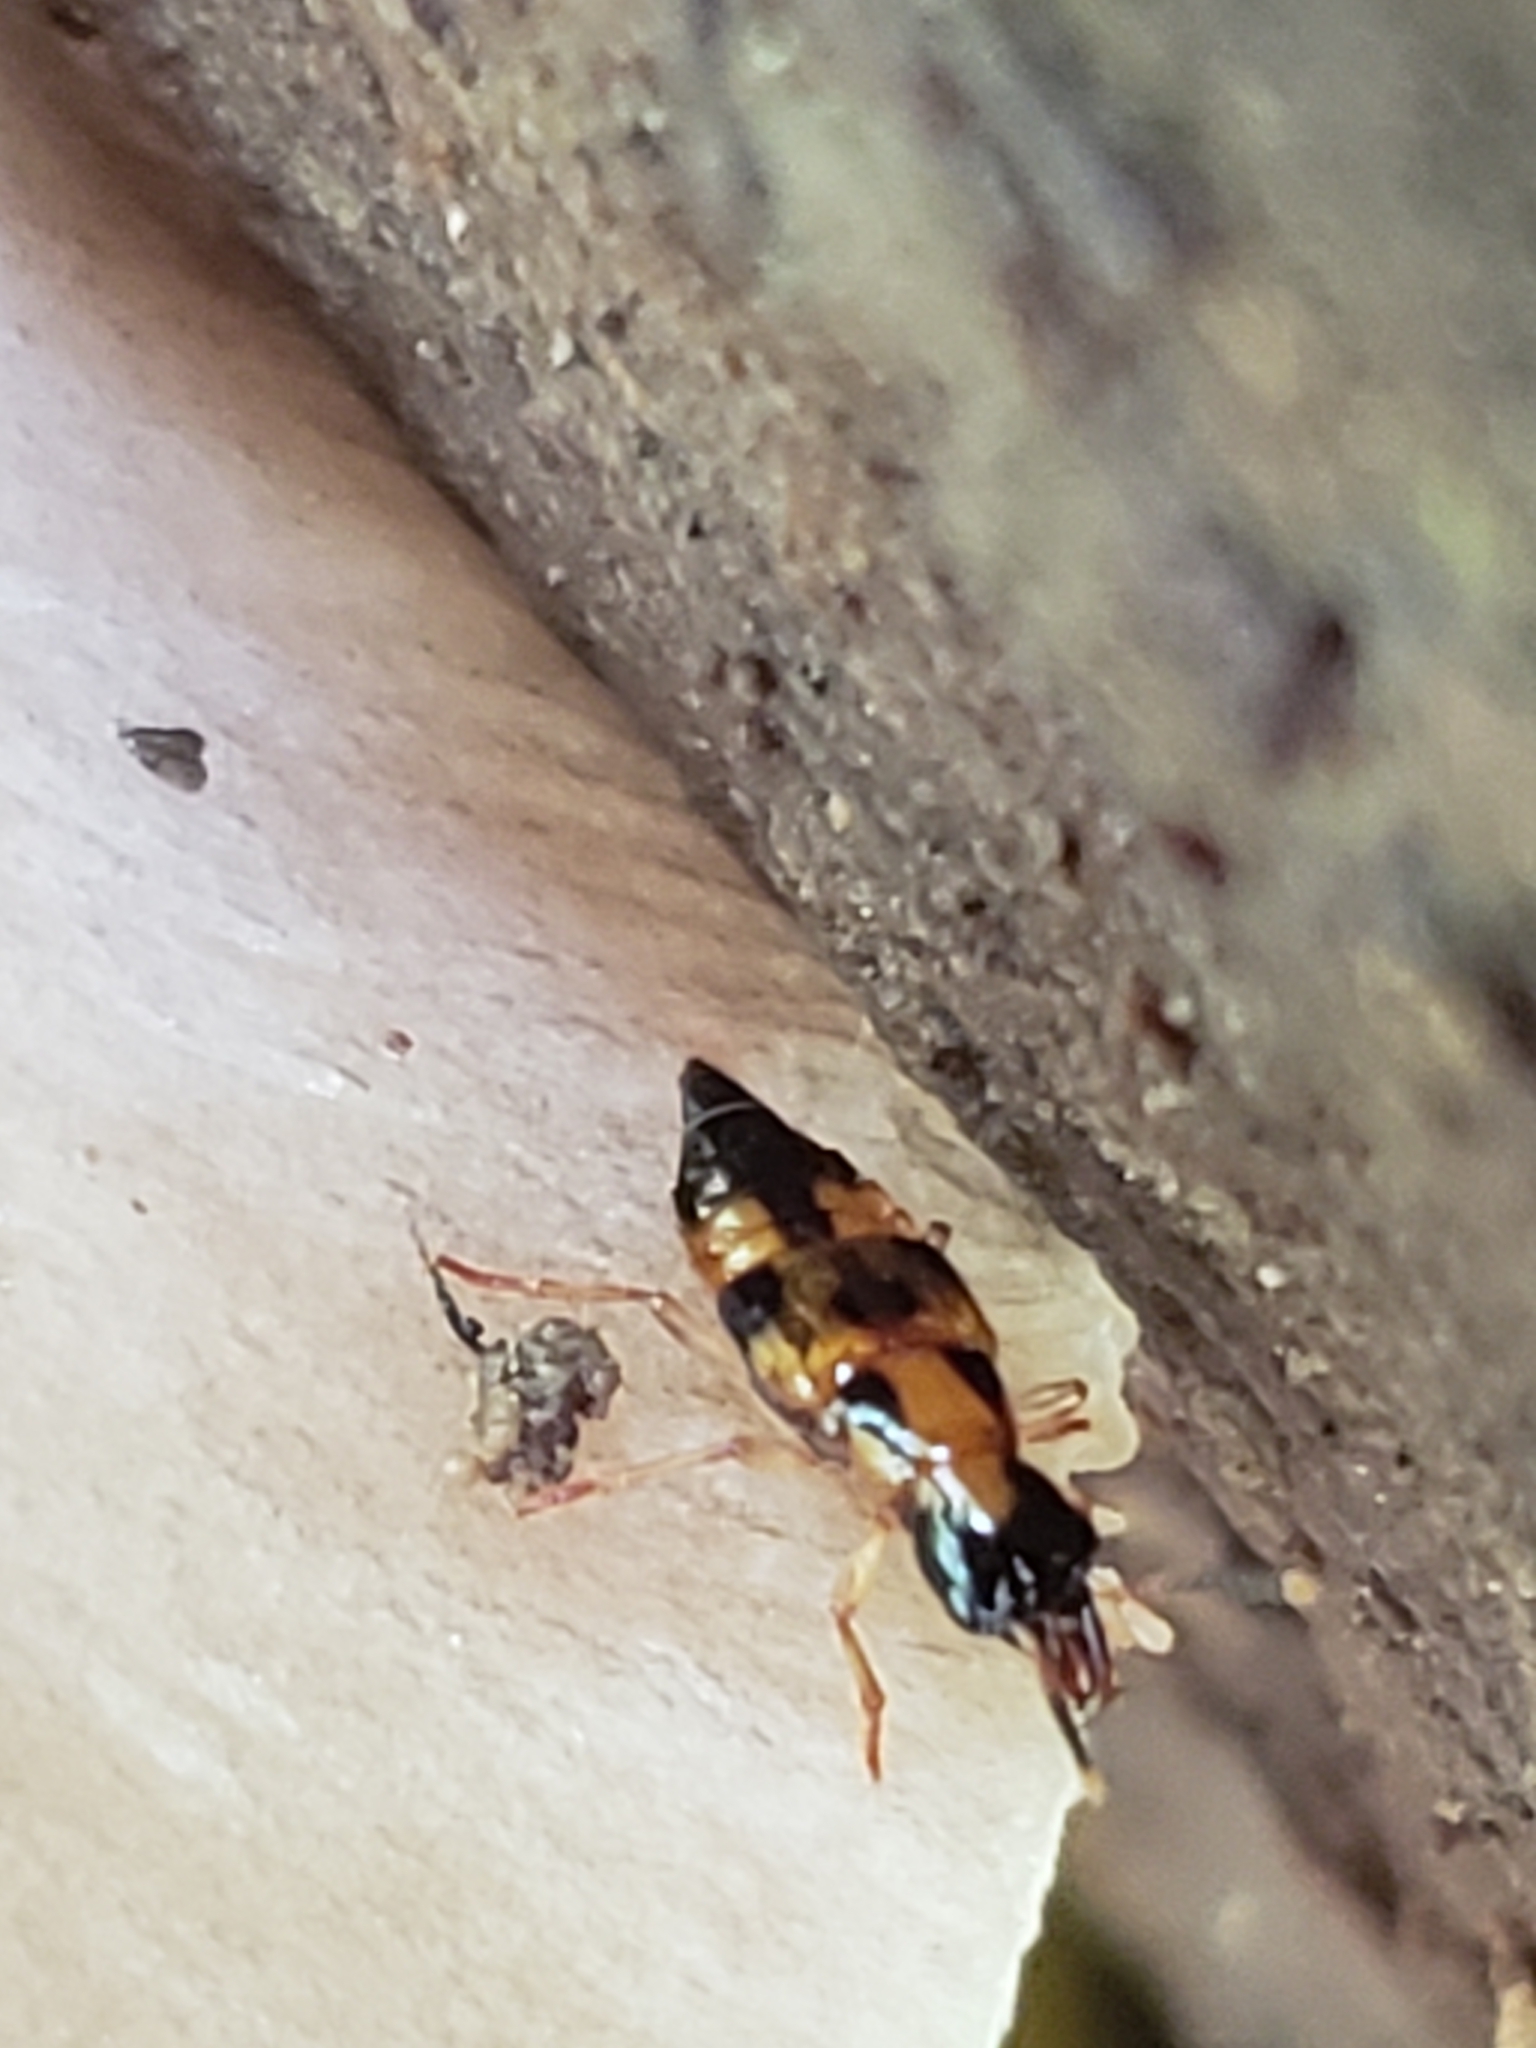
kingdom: Animalia
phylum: Arthropoda
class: Insecta
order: Coleoptera
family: Staphylinidae
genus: Pseudoxyporus
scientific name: Pseudoxyporus quinquemaculatus
